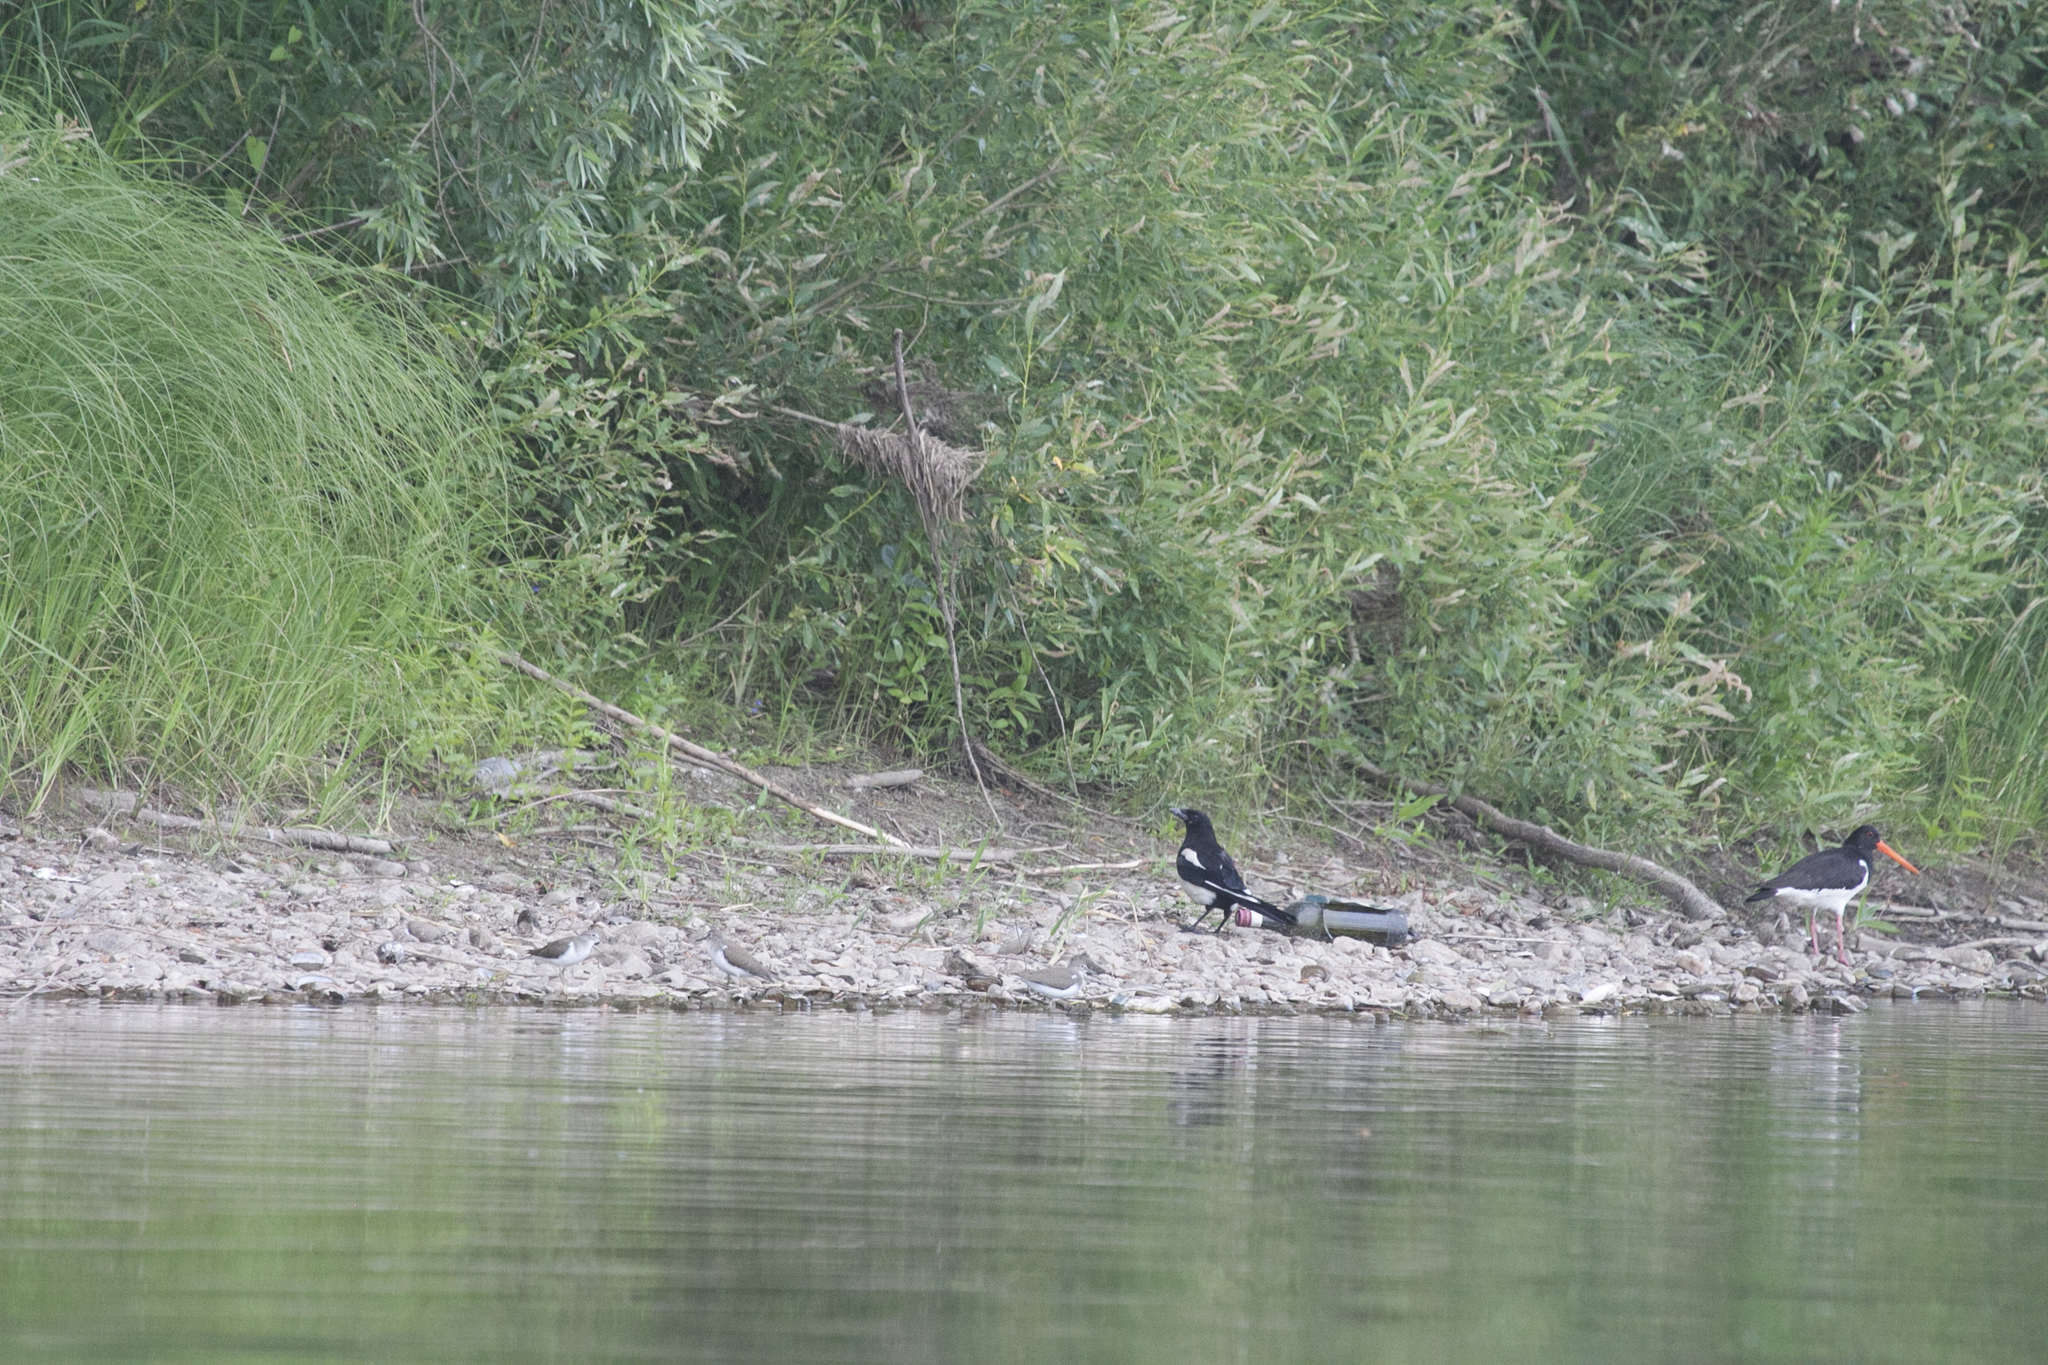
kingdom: Animalia
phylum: Chordata
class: Aves
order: Passeriformes
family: Corvidae
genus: Pica
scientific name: Pica pica
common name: Eurasian magpie
